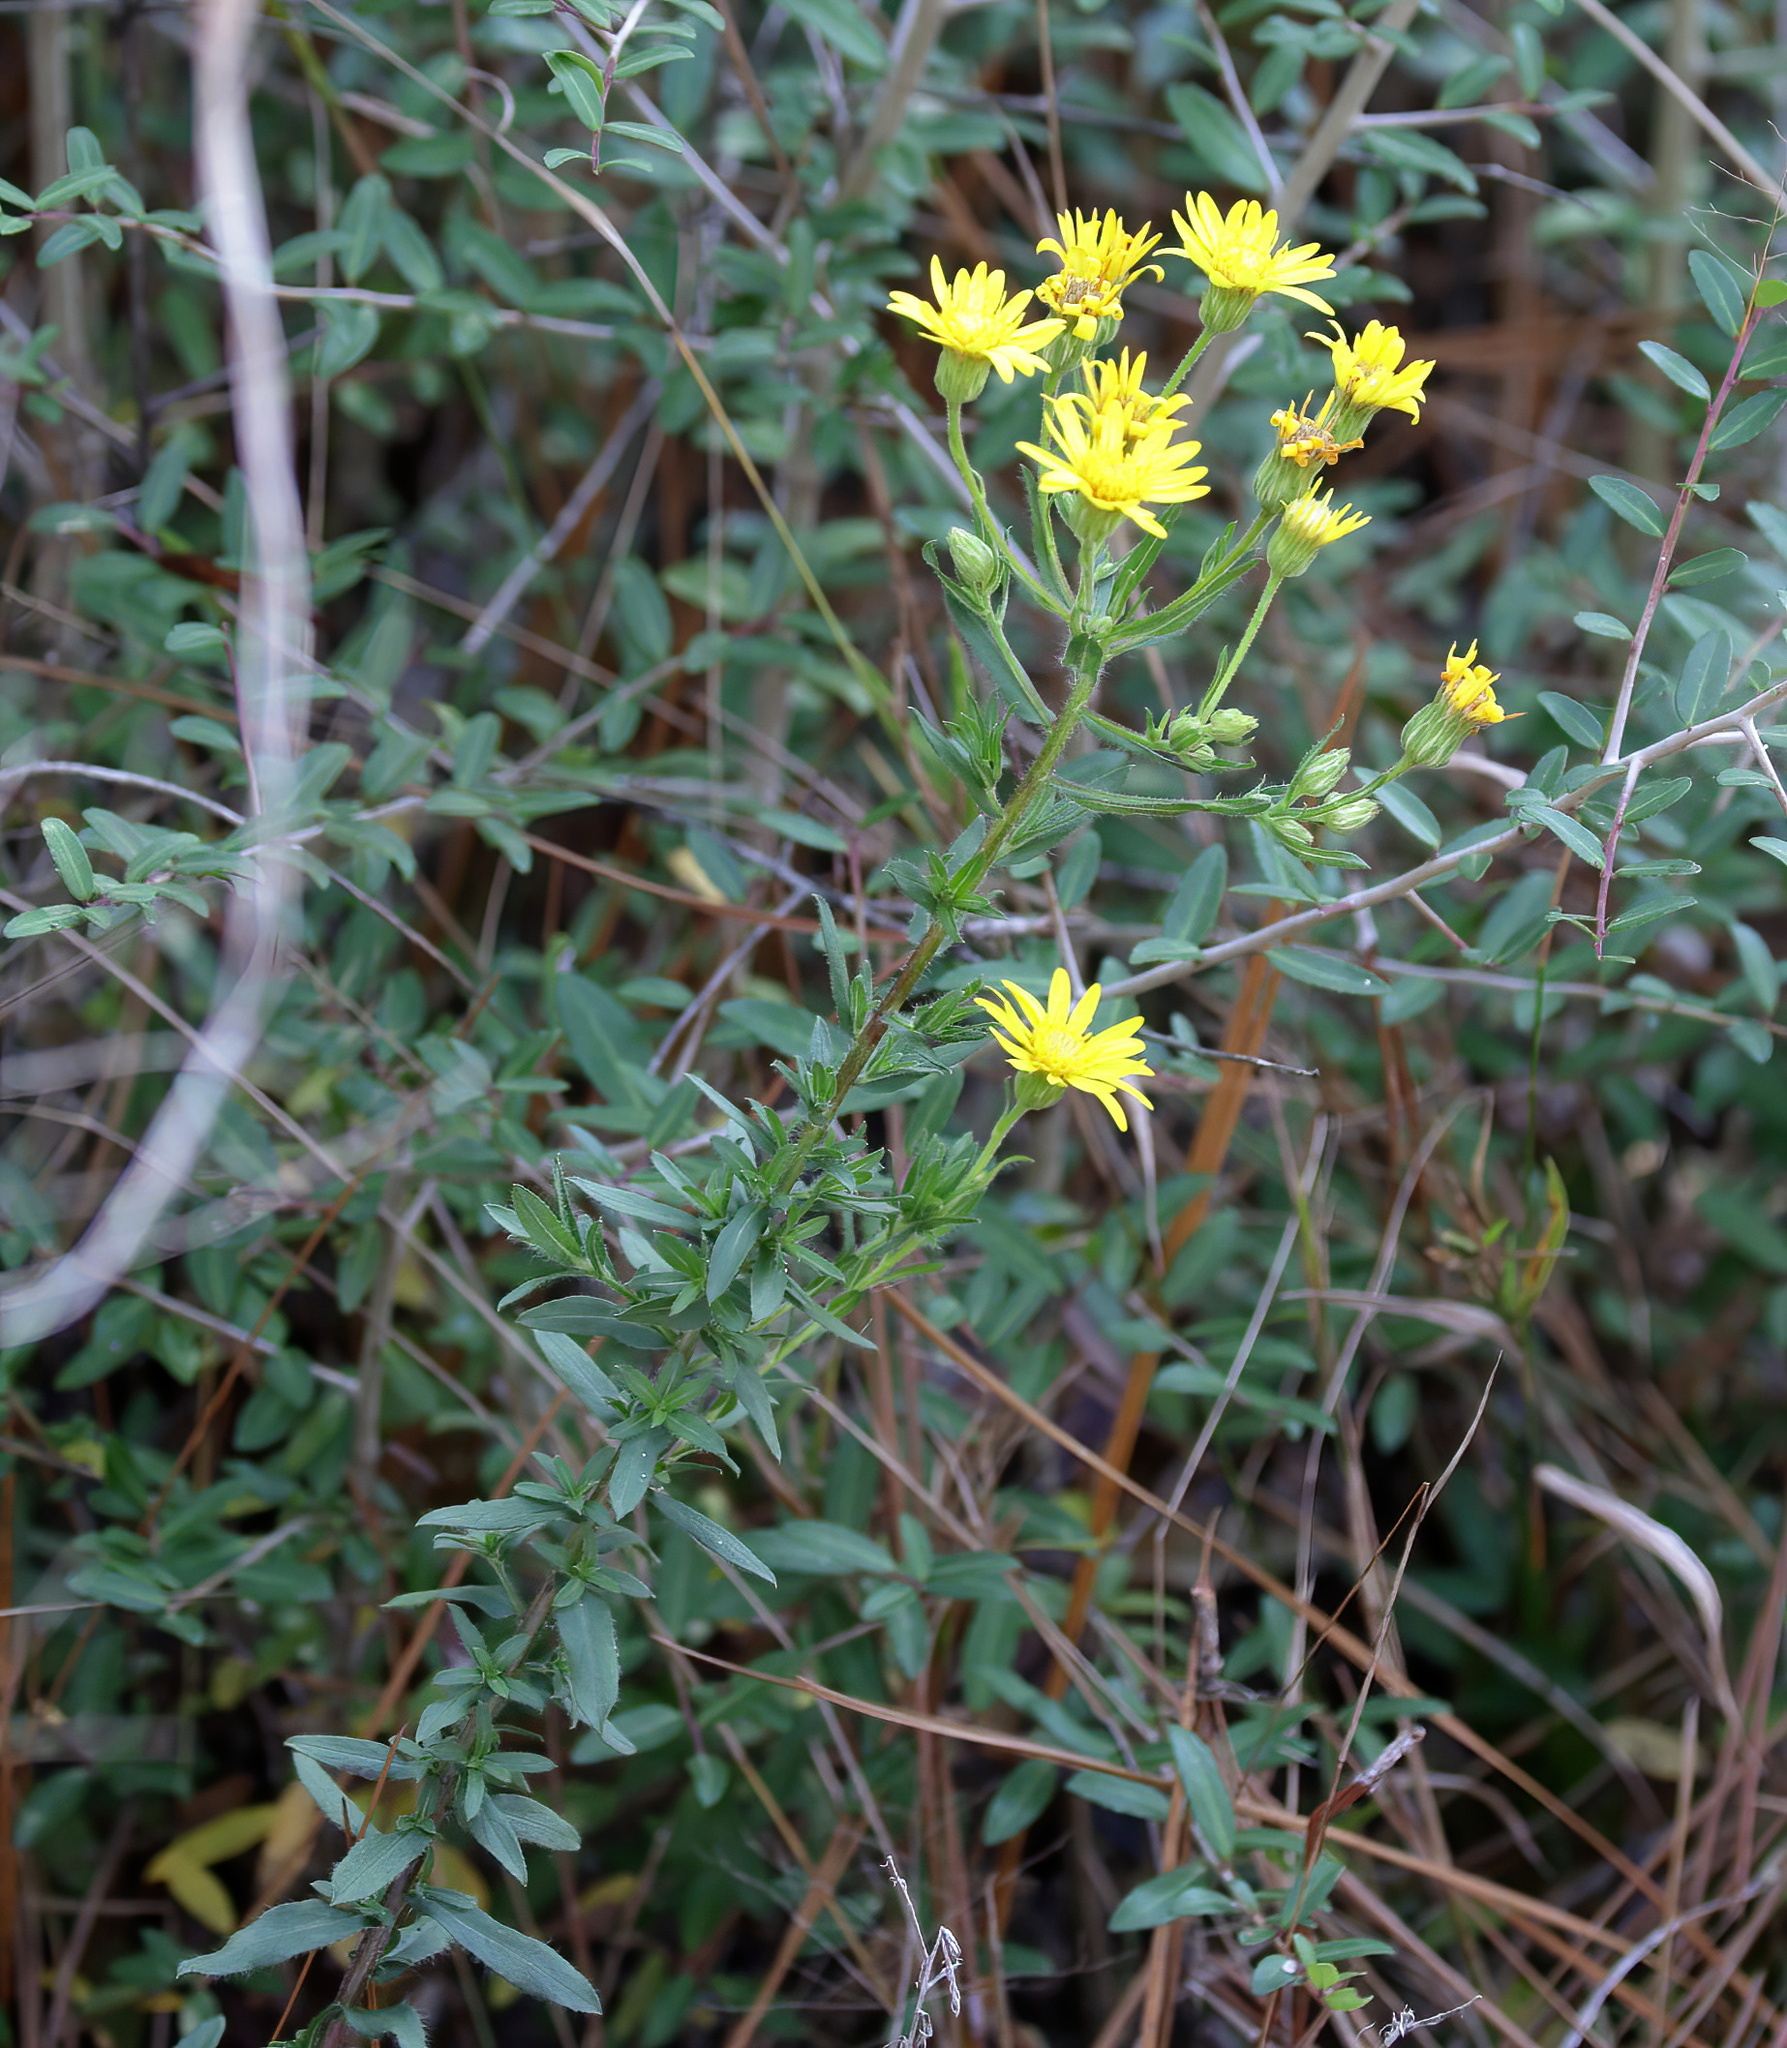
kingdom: Plantae
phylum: Tracheophyta
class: Magnoliopsida
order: Asterales
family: Asteraceae
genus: Chrysopsis
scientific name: Chrysopsis mariana
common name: Maryland golden-aster
